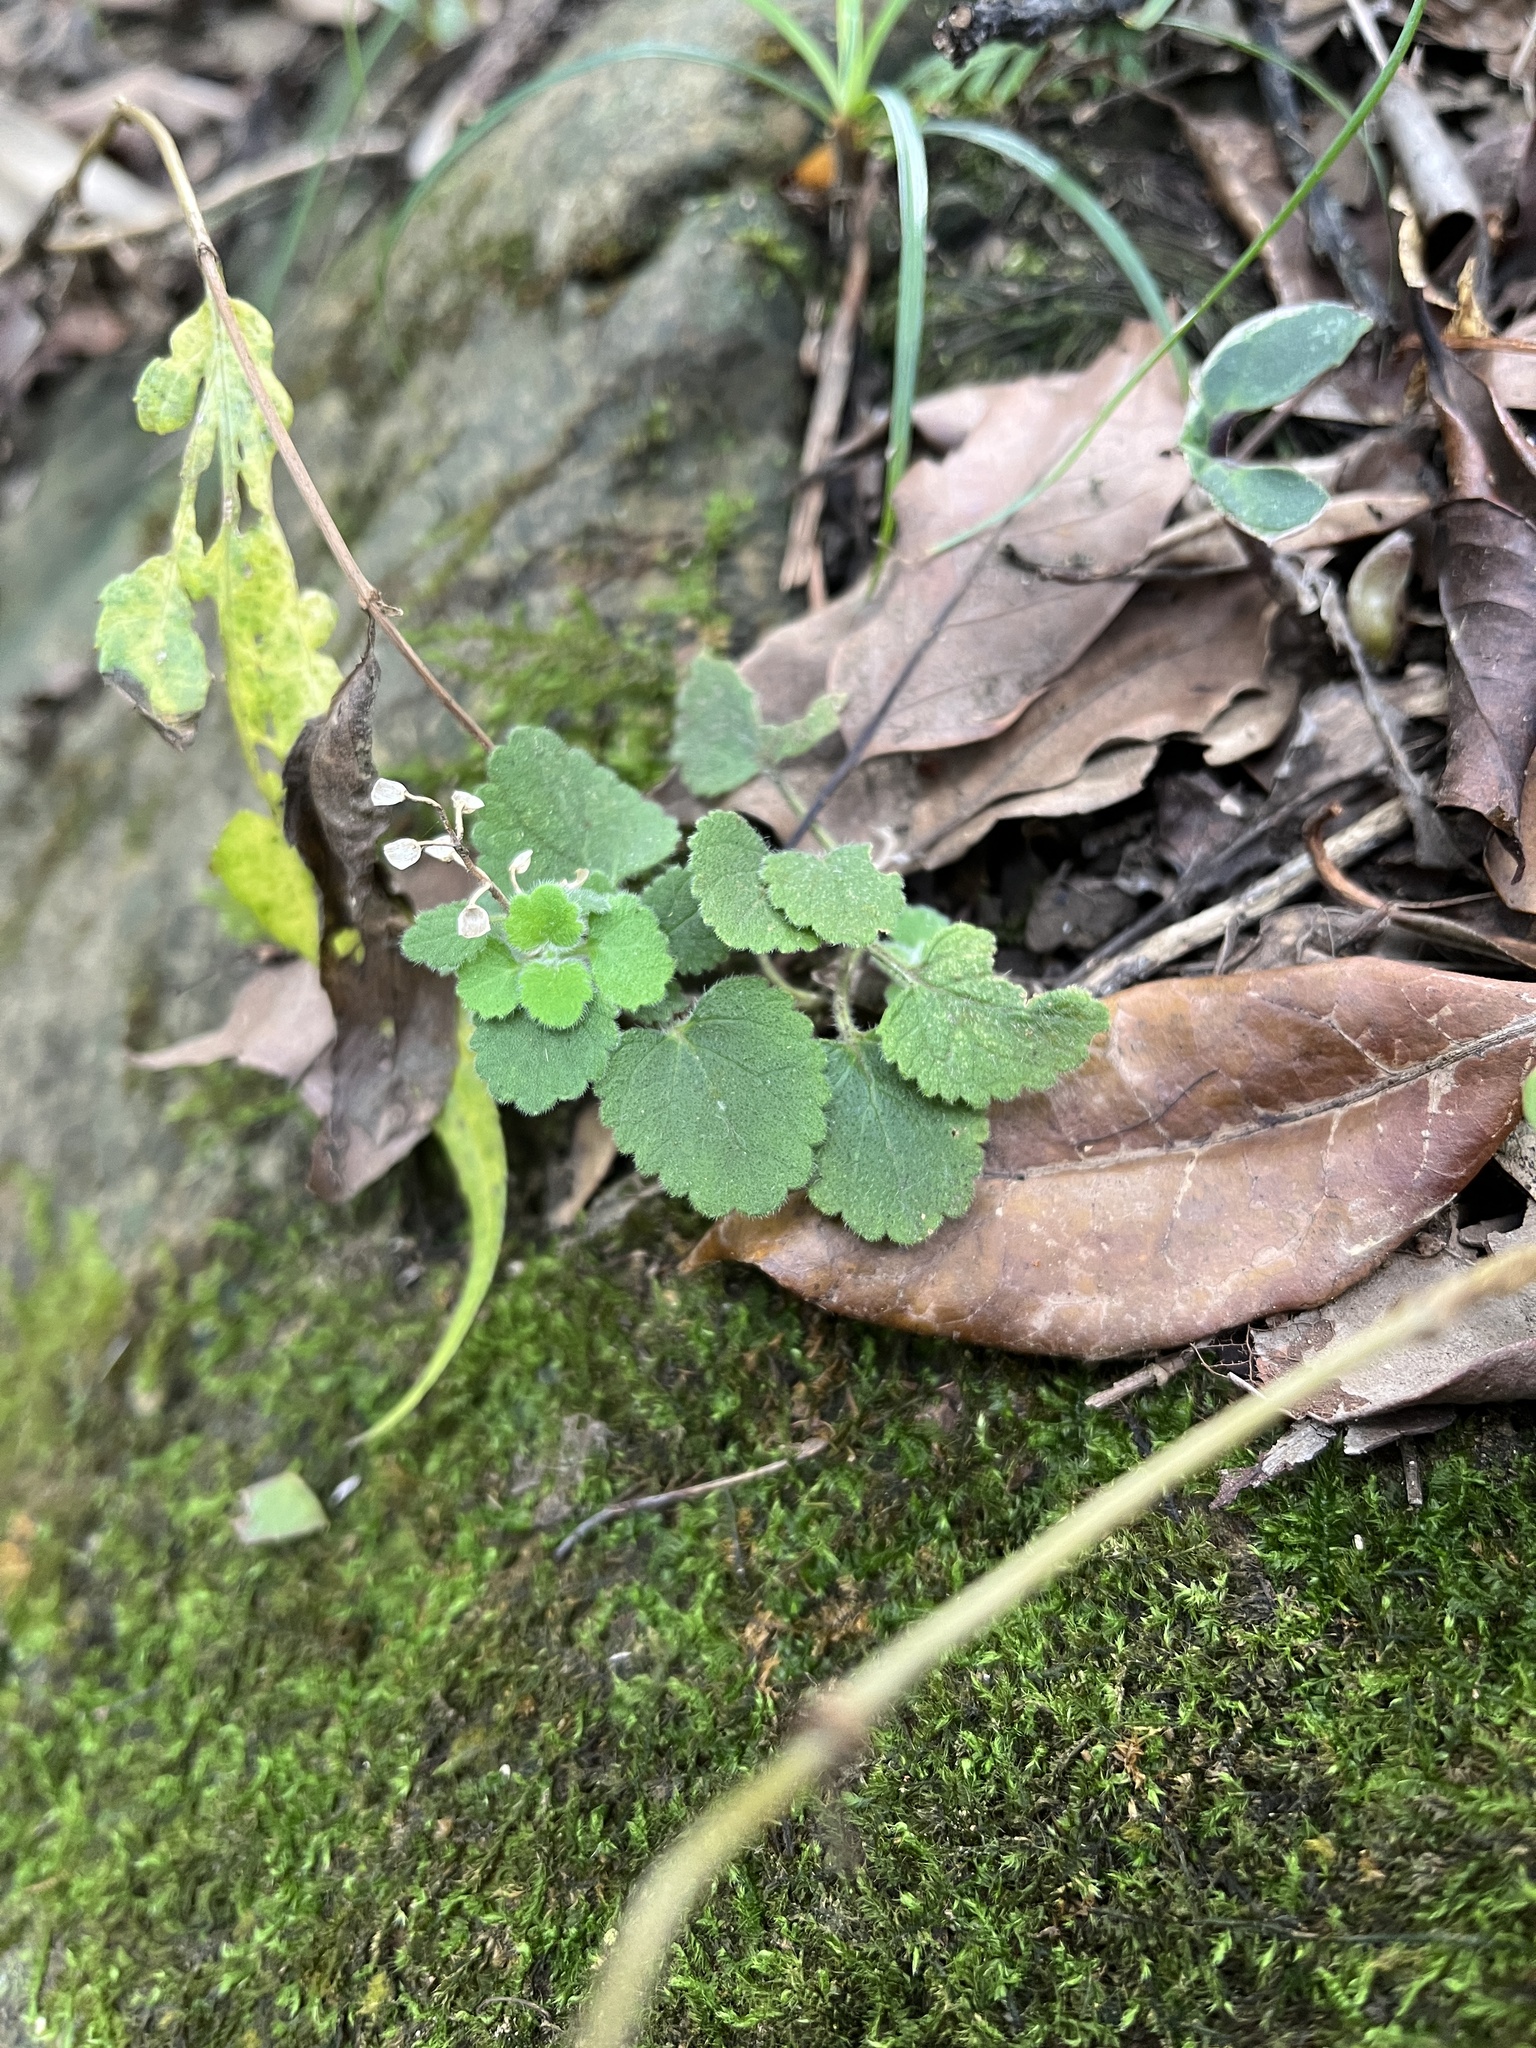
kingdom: Plantae
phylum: Tracheophyta
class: Magnoliopsida
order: Lamiales
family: Lamiaceae
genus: Scutellaria
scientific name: Scutellaria indica
